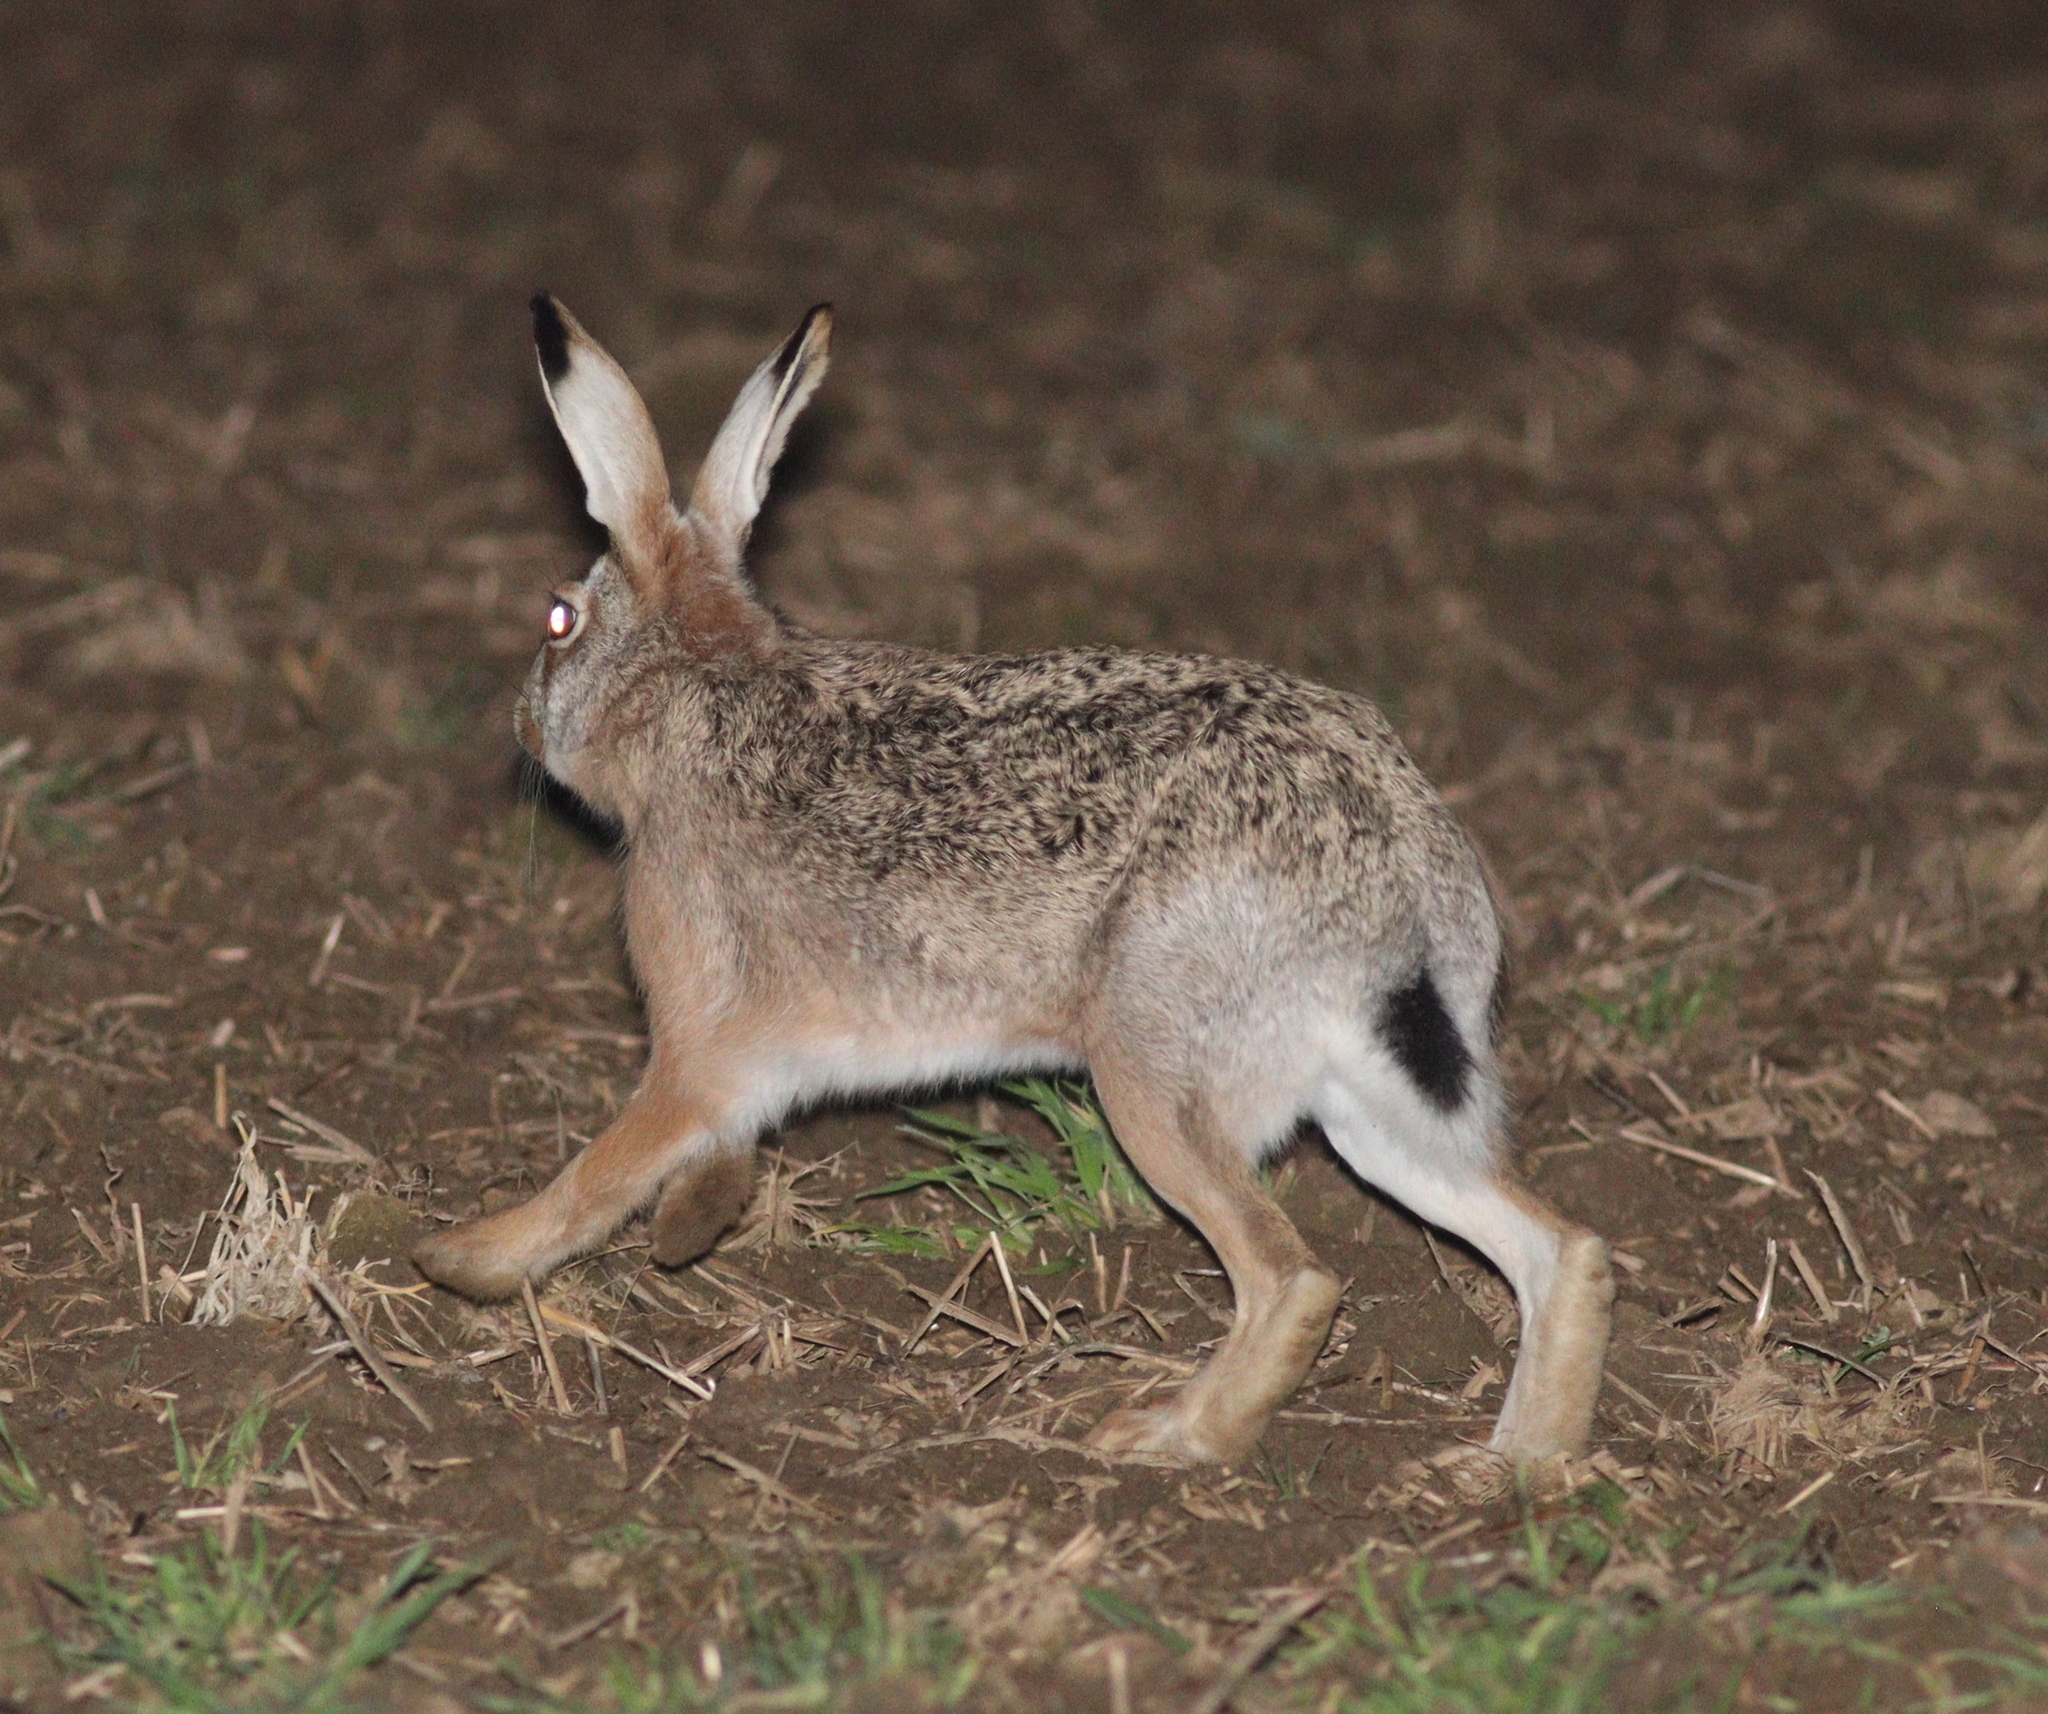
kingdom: Animalia
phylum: Chordata
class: Mammalia
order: Lagomorpha
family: Leporidae
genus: Lepus
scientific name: Lepus europaeus
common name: European hare
